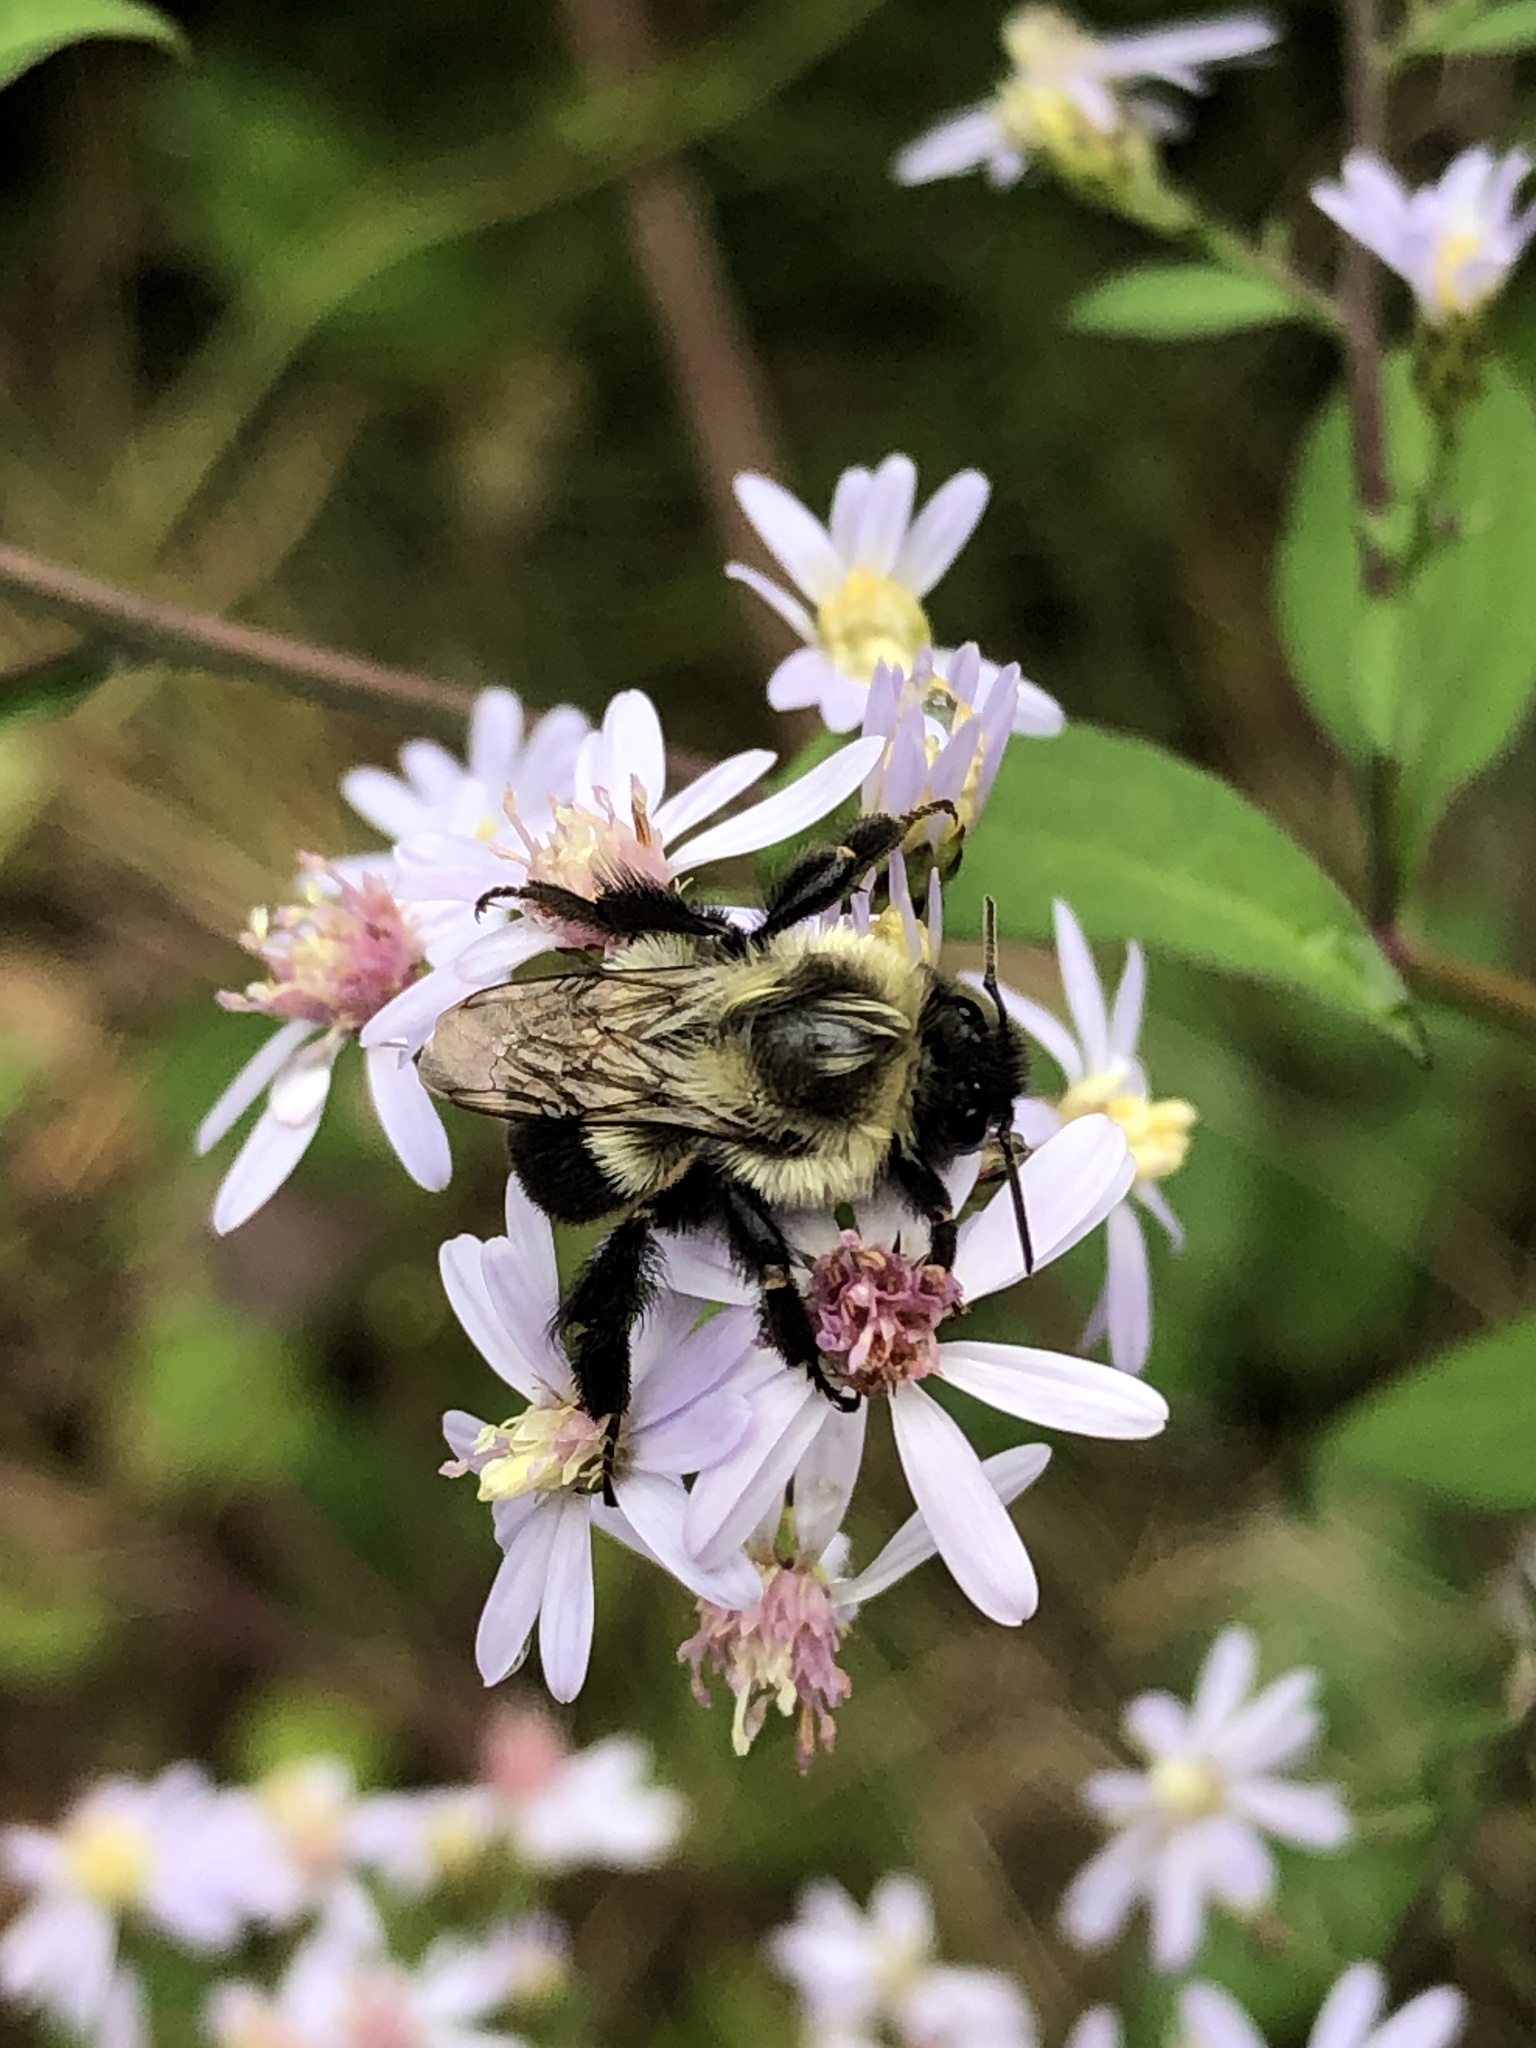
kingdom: Animalia
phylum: Arthropoda
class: Insecta
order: Hymenoptera
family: Apidae
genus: Bombus
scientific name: Bombus impatiens
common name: Common eastern bumble bee
